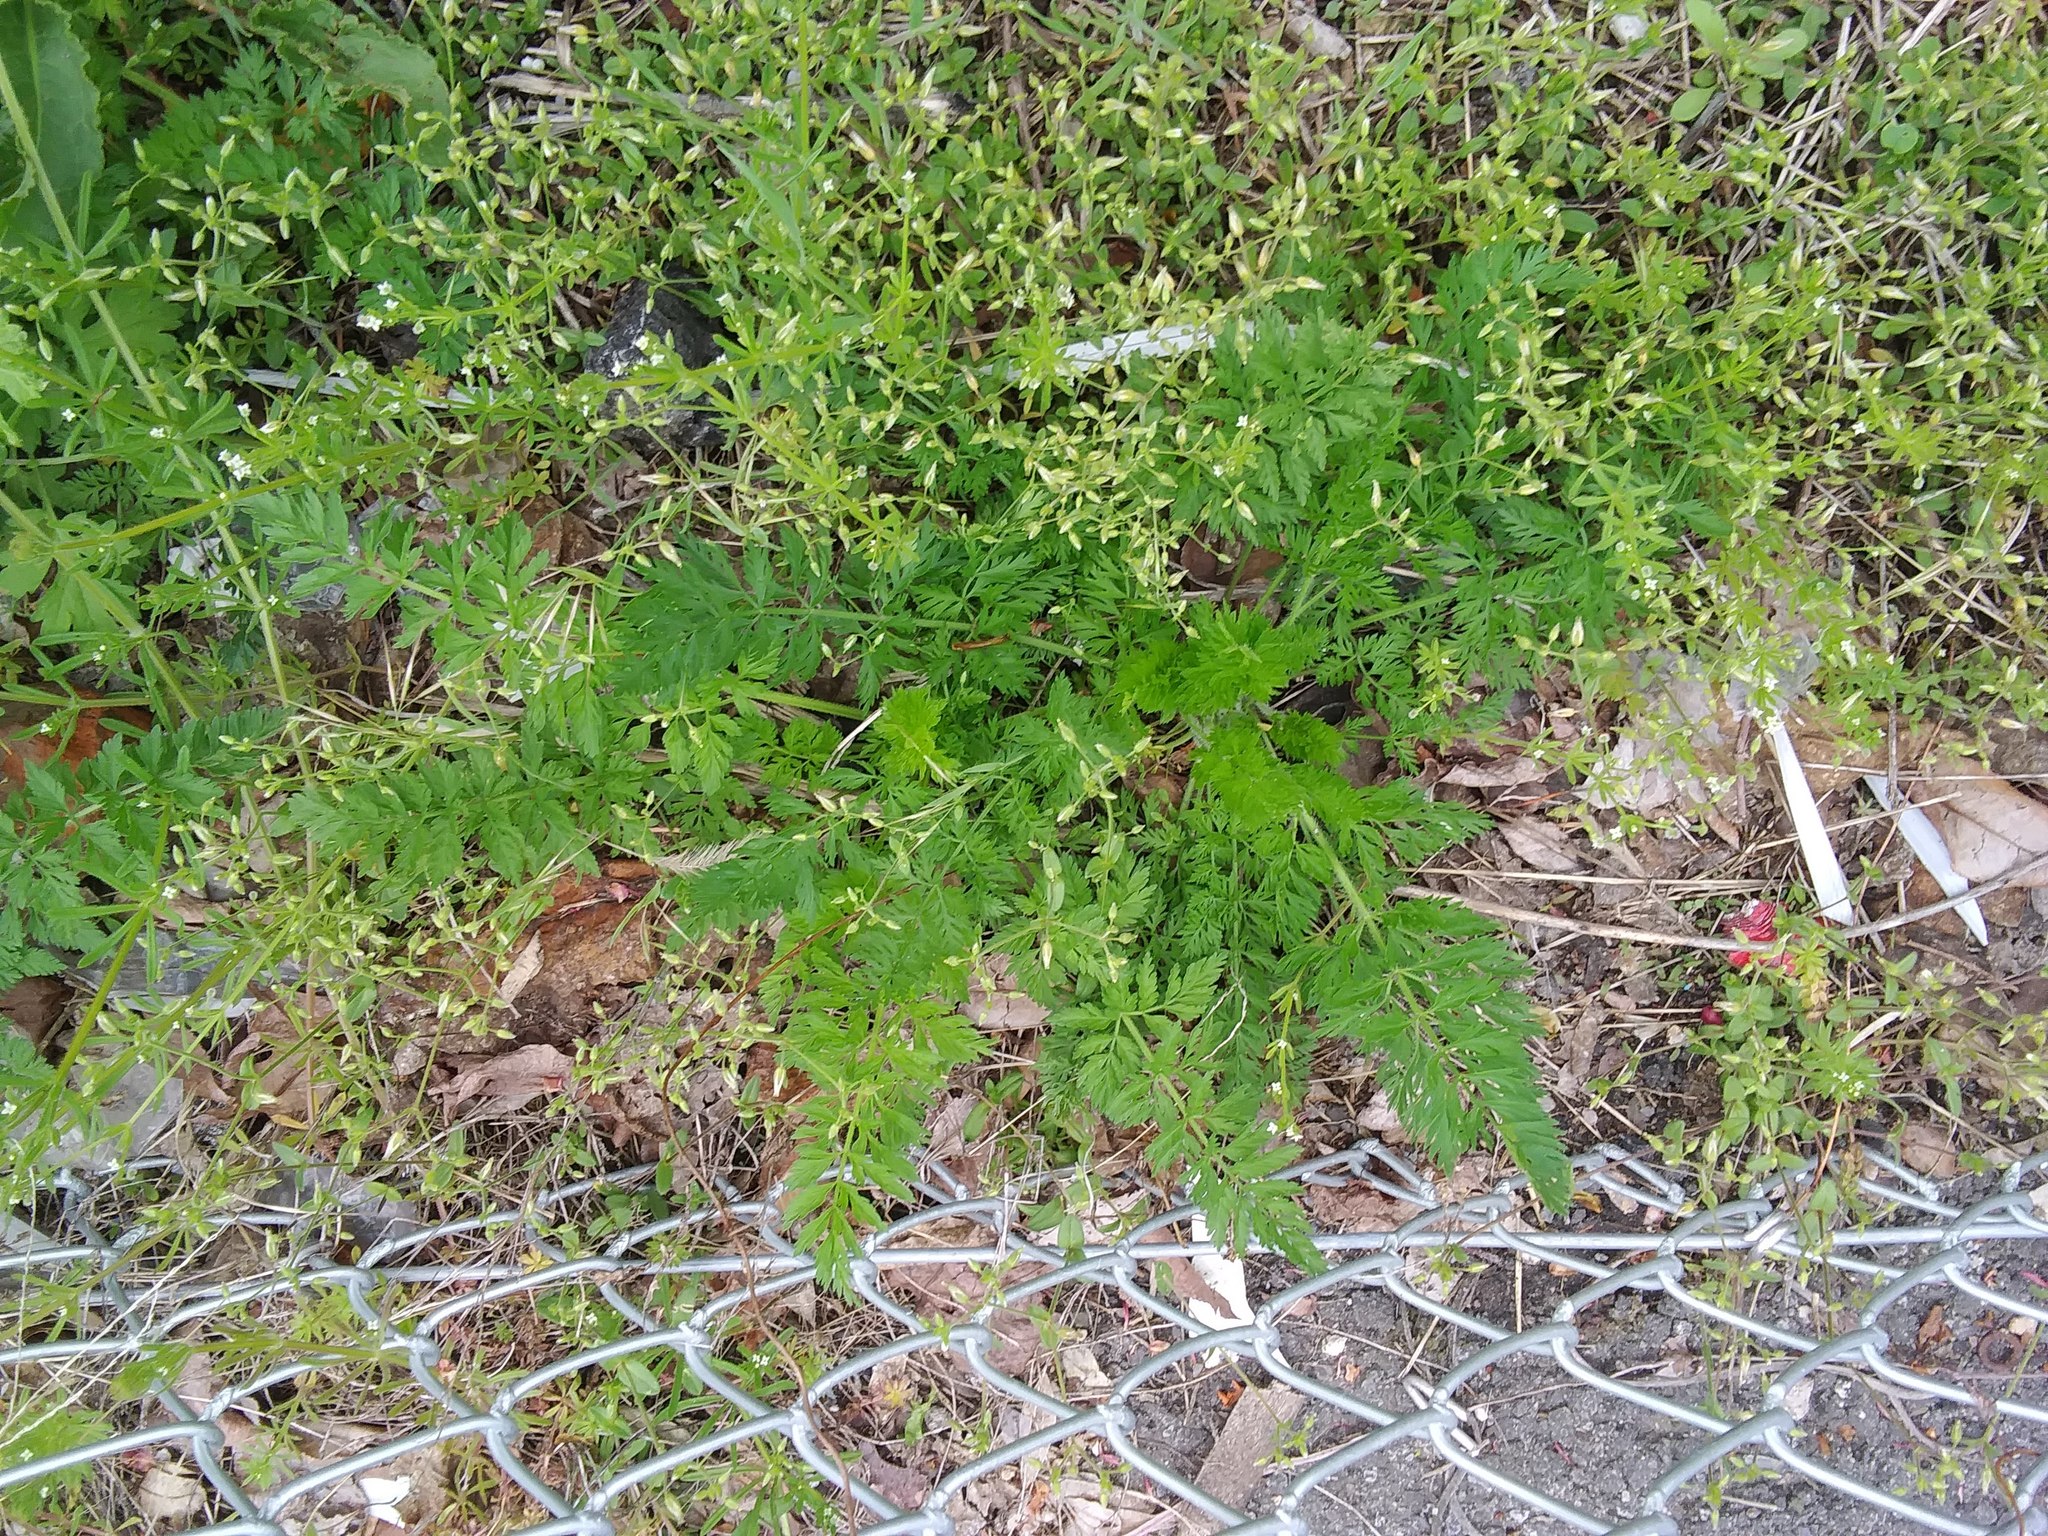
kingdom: Plantae
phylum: Tracheophyta
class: Magnoliopsida
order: Apiales
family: Apiaceae
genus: Daucus
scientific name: Daucus carota
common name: Wild carrot
